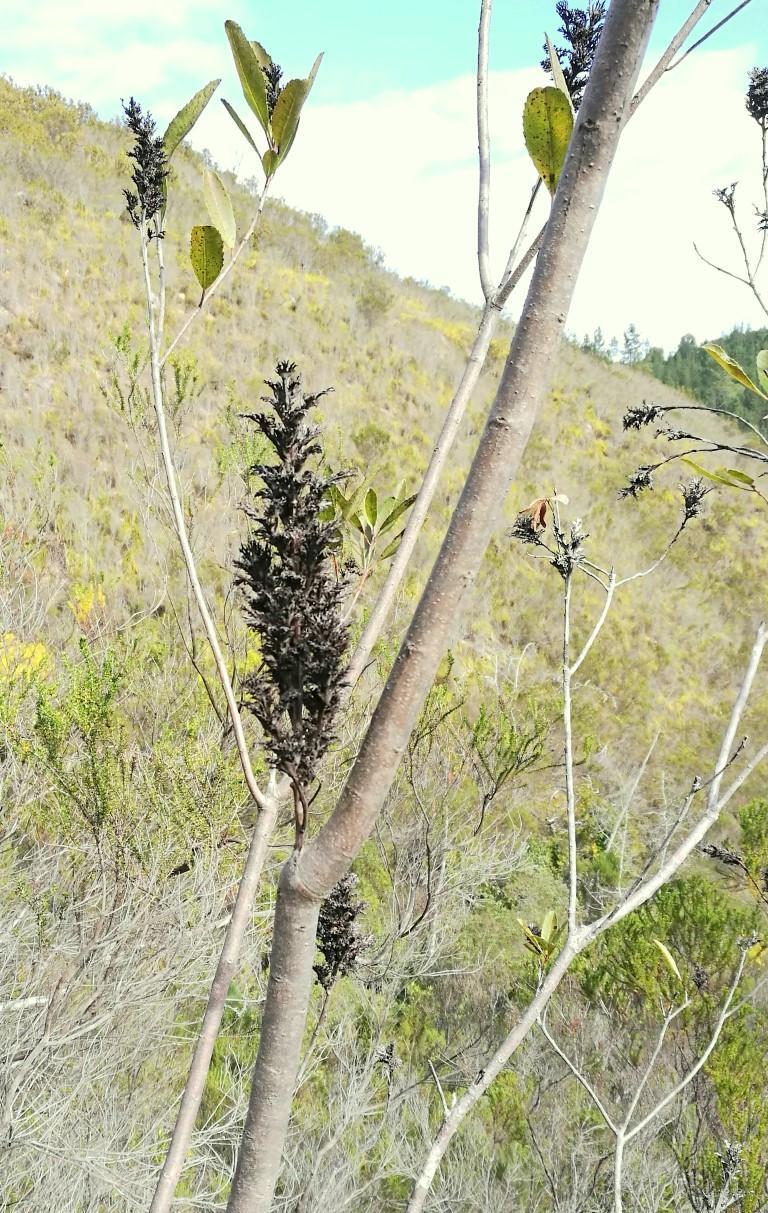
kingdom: Plantae
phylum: Tracheophyta
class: Magnoliopsida
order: Sapindales
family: Anacardiaceae
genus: Laurophyllus
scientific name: Laurophyllus capensis
